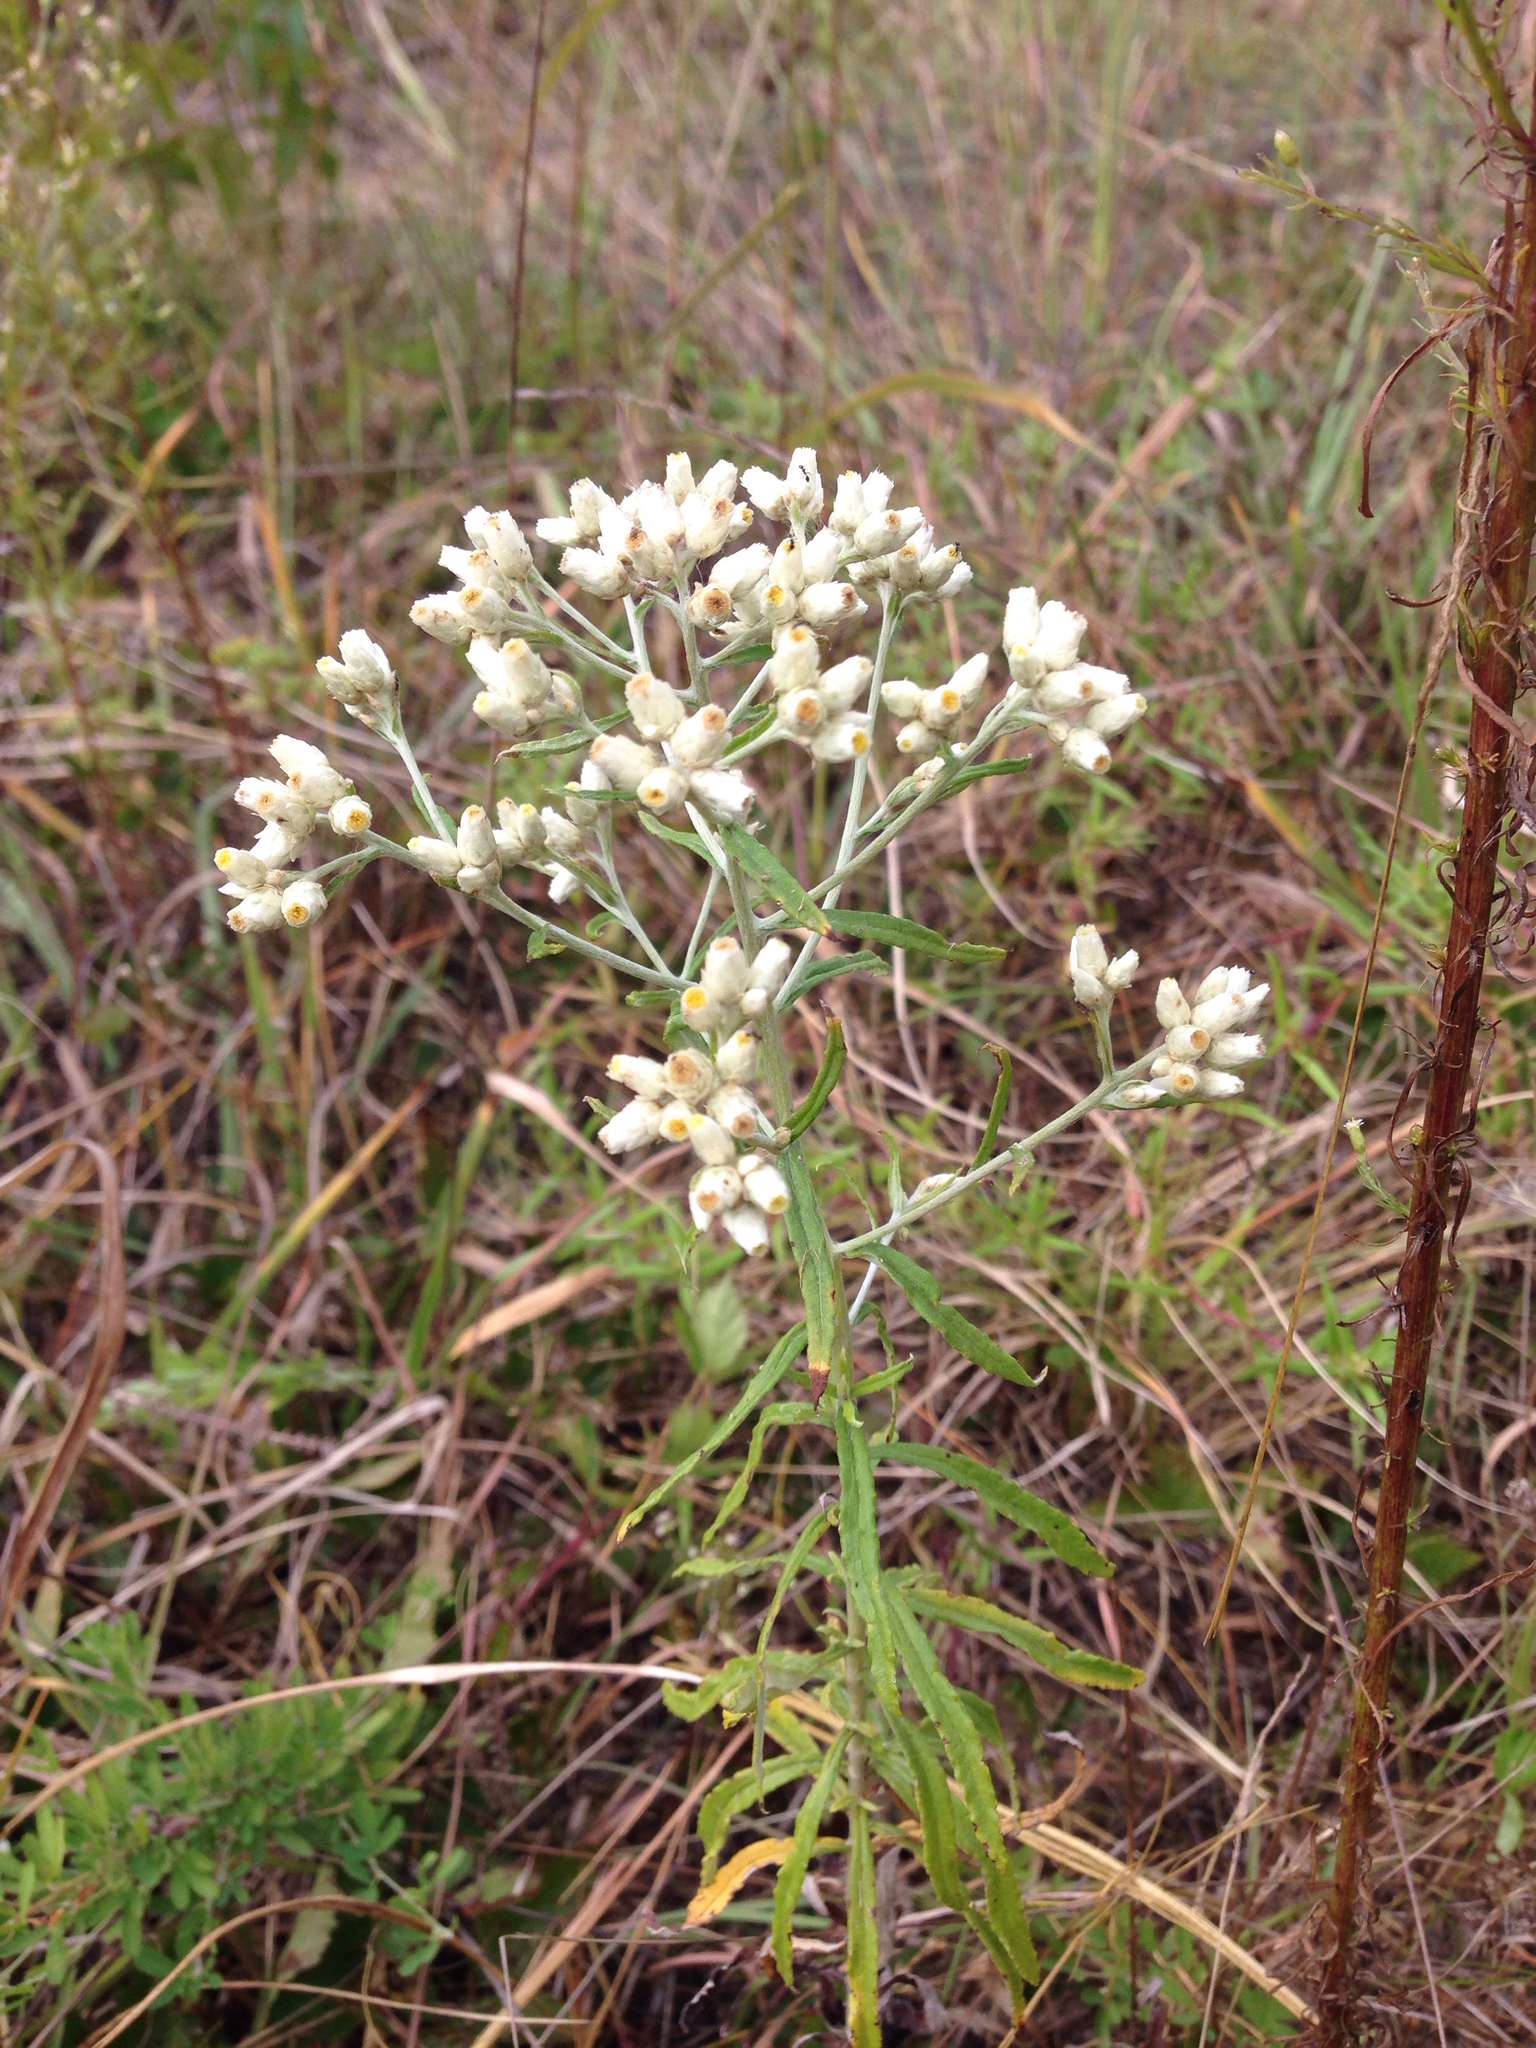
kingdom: Plantae
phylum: Tracheophyta
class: Magnoliopsida
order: Asterales
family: Asteraceae
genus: Pseudognaphalium
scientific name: Pseudognaphalium obtusifolium
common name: Eastern rabbit-tobacco
